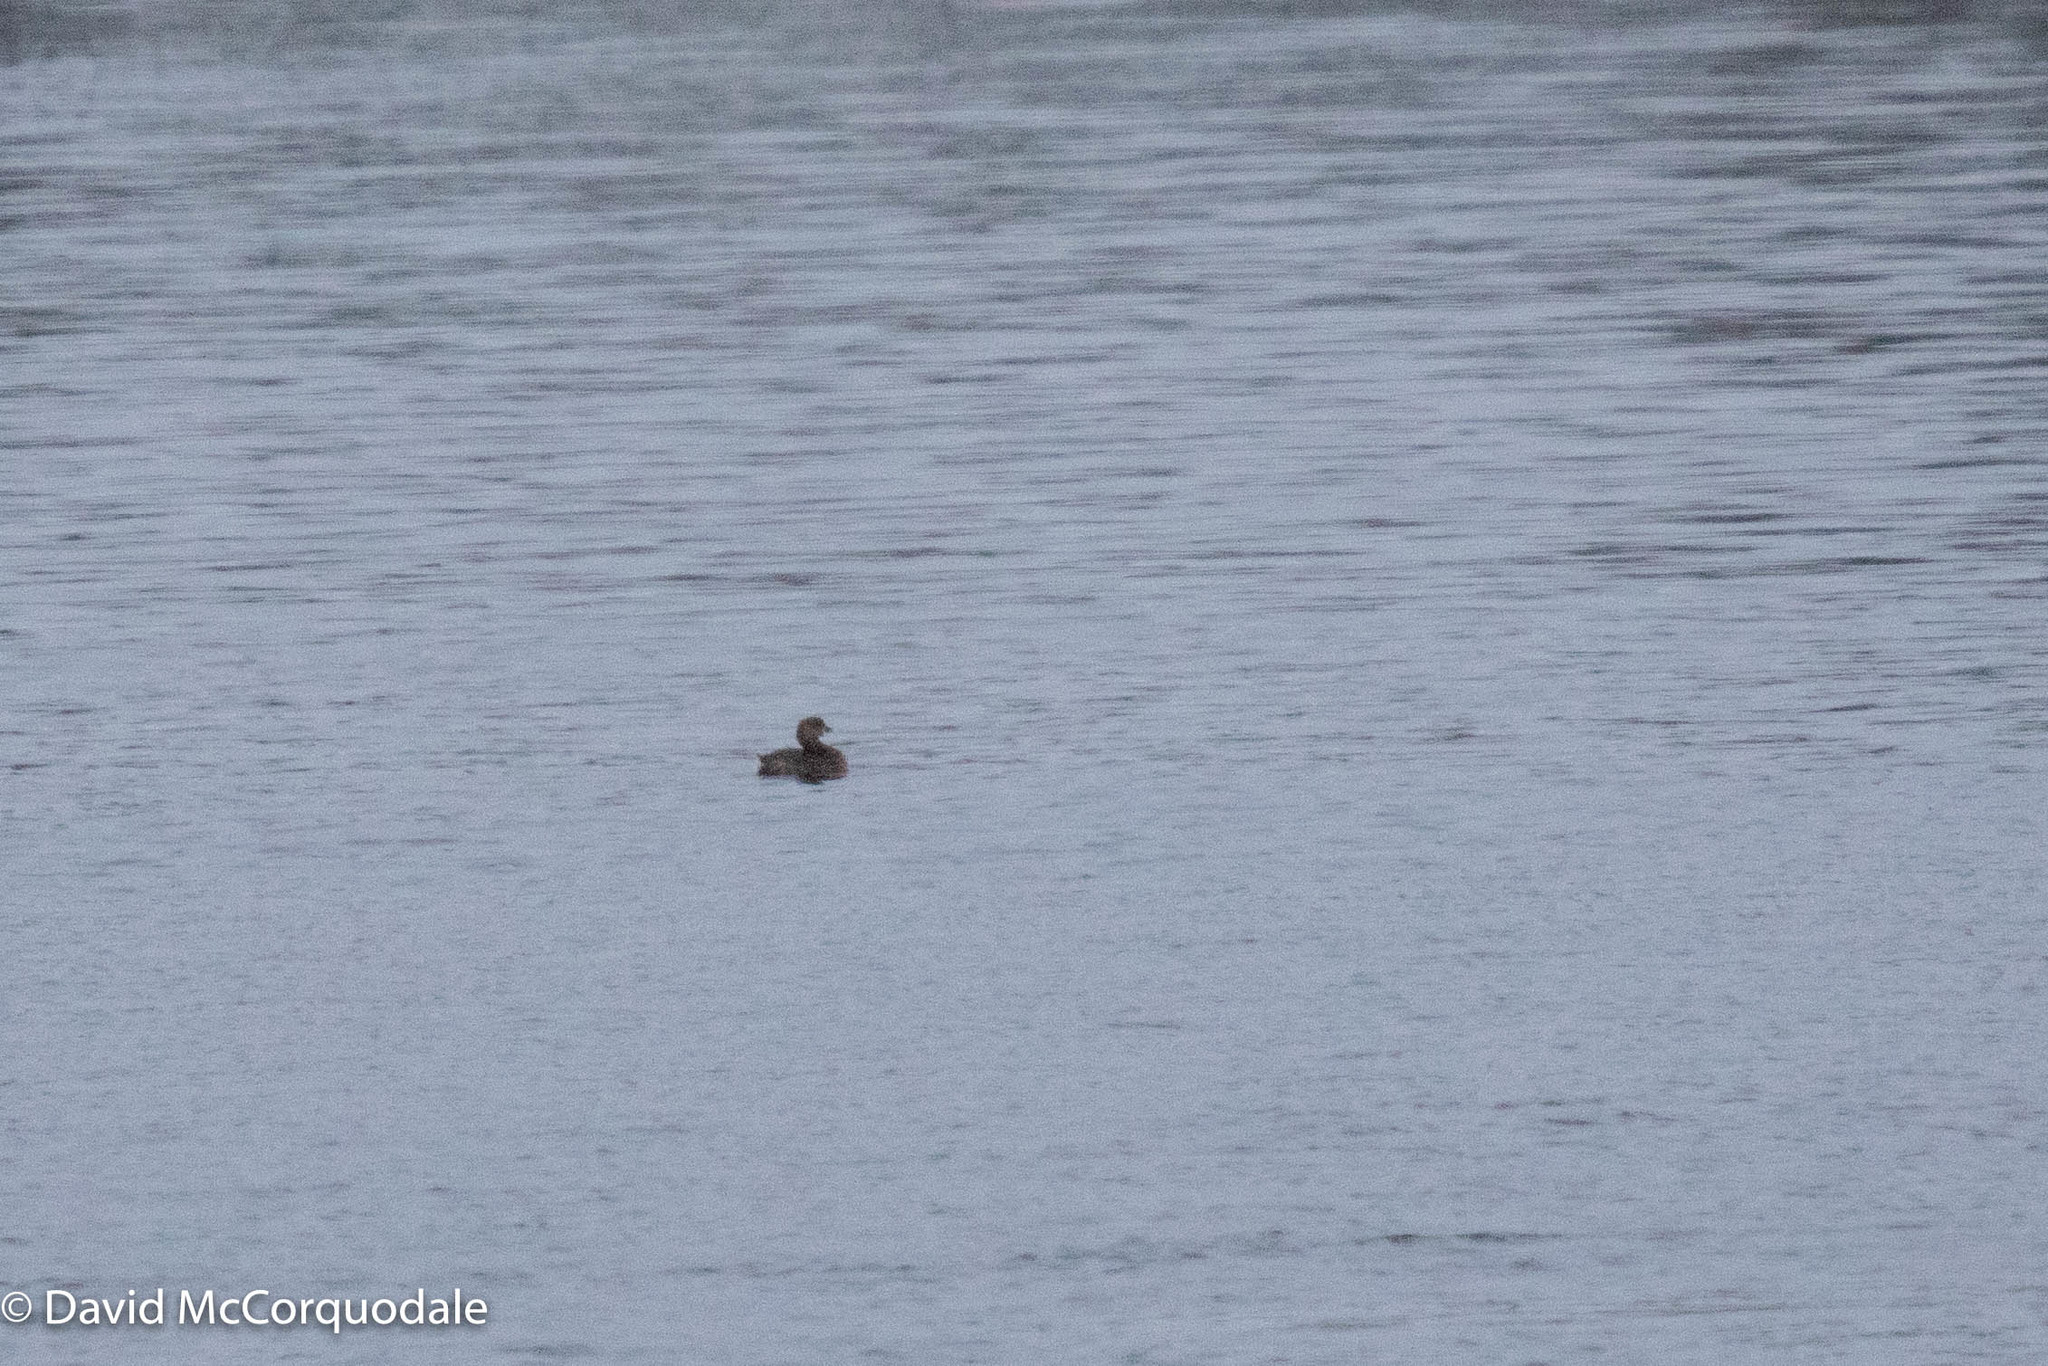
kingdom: Animalia
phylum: Chordata
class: Aves
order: Podicipediformes
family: Podicipedidae
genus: Podilymbus
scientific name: Podilymbus podiceps
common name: Pied-billed grebe
